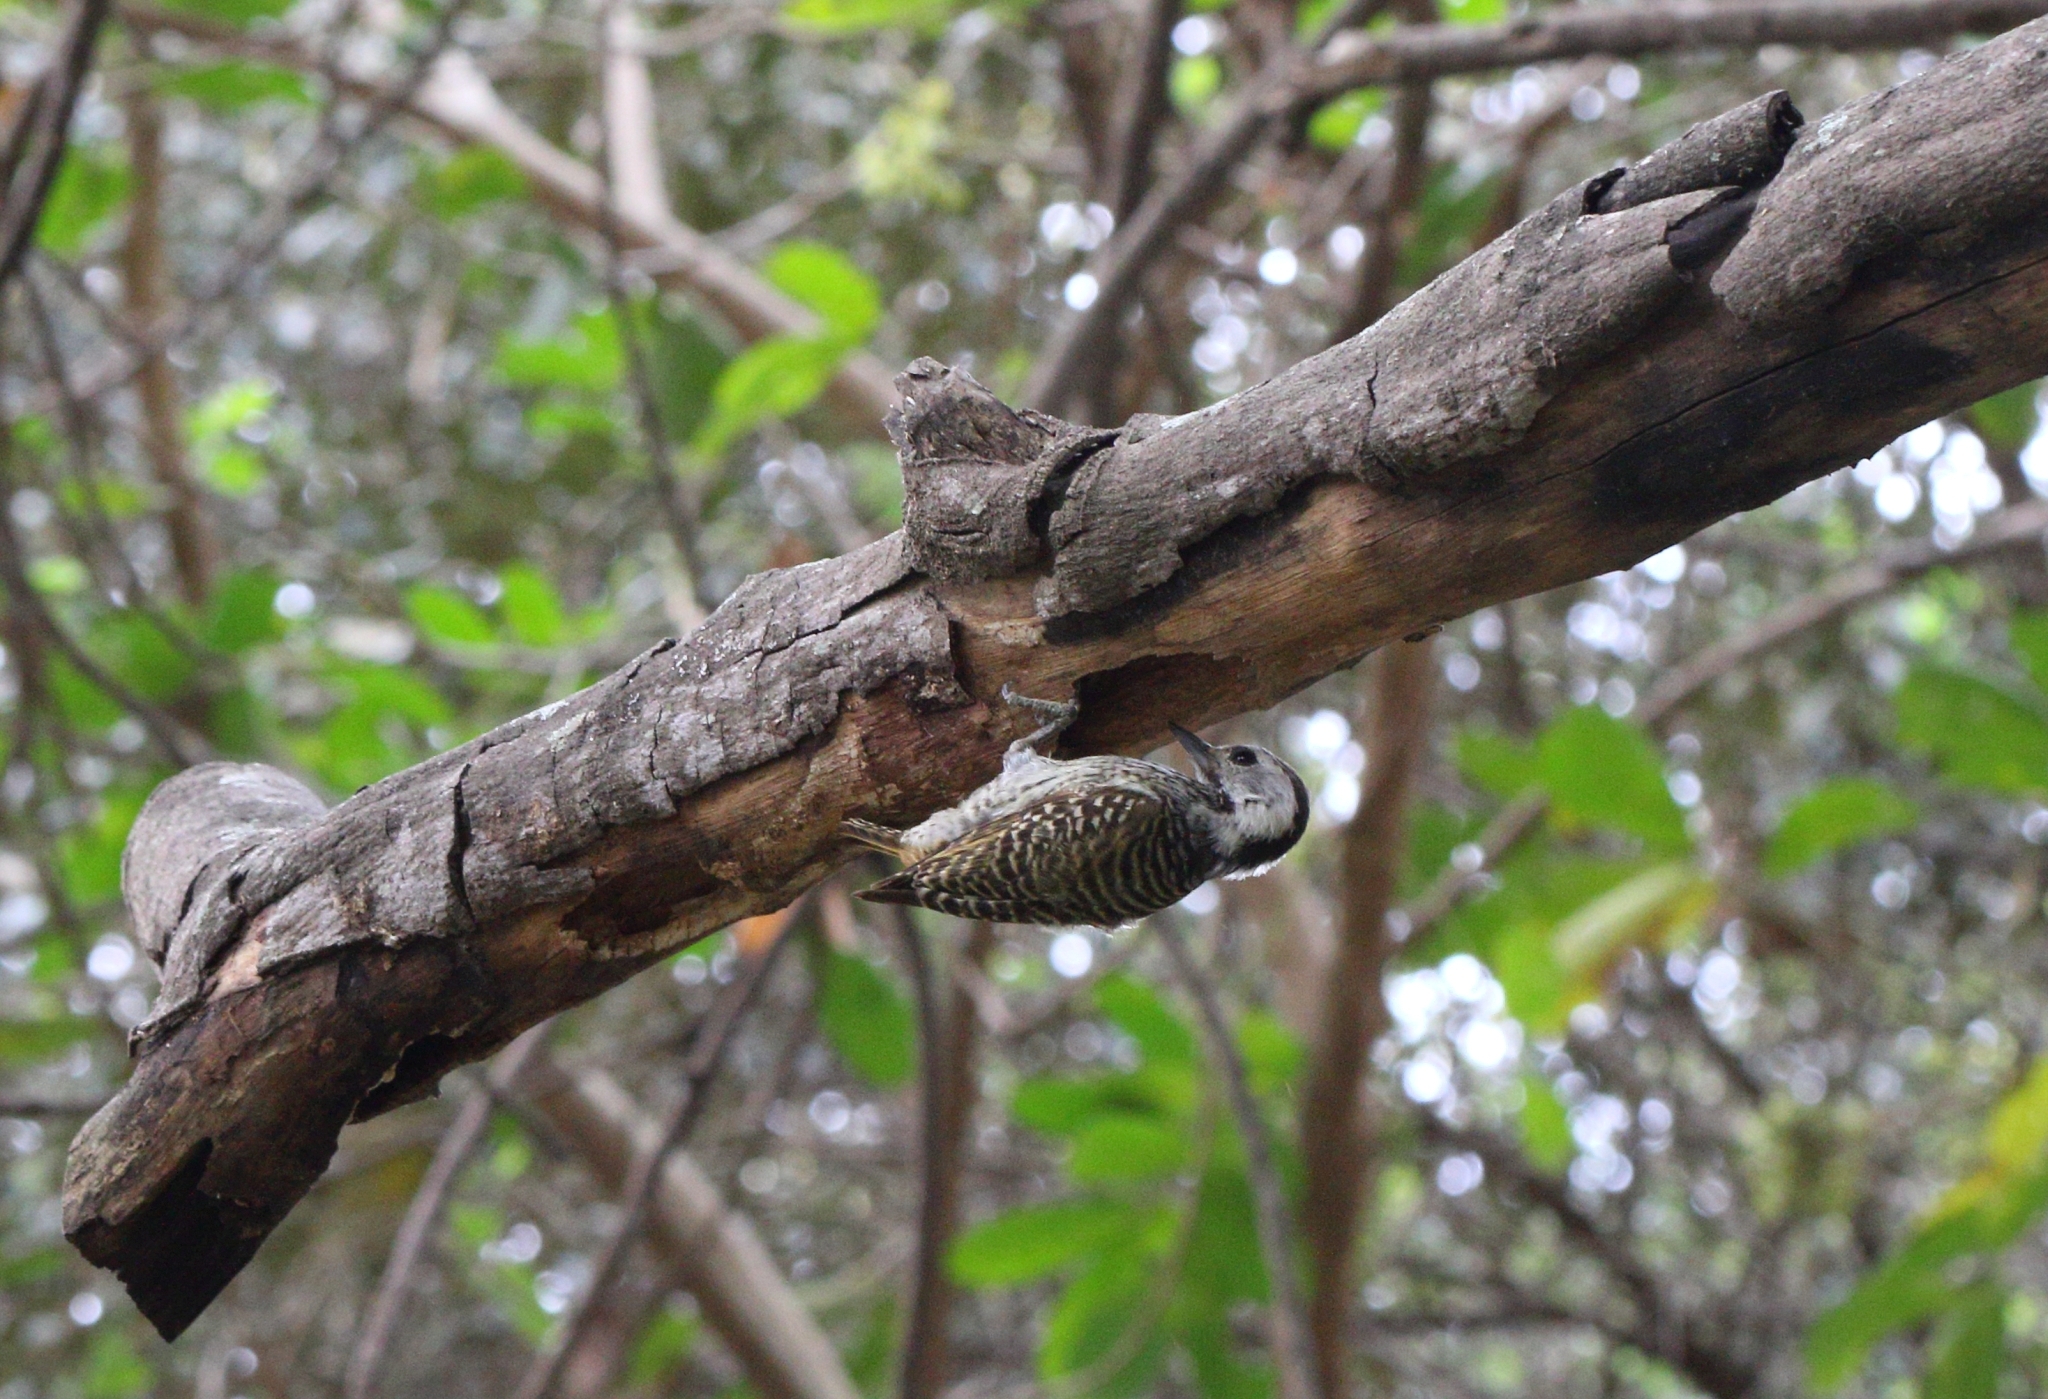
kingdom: Animalia
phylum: Chordata
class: Aves
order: Piciformes
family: Picidae
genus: Dendropicos
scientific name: Dendropicos fuscescens
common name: Cardinal woodpecker
